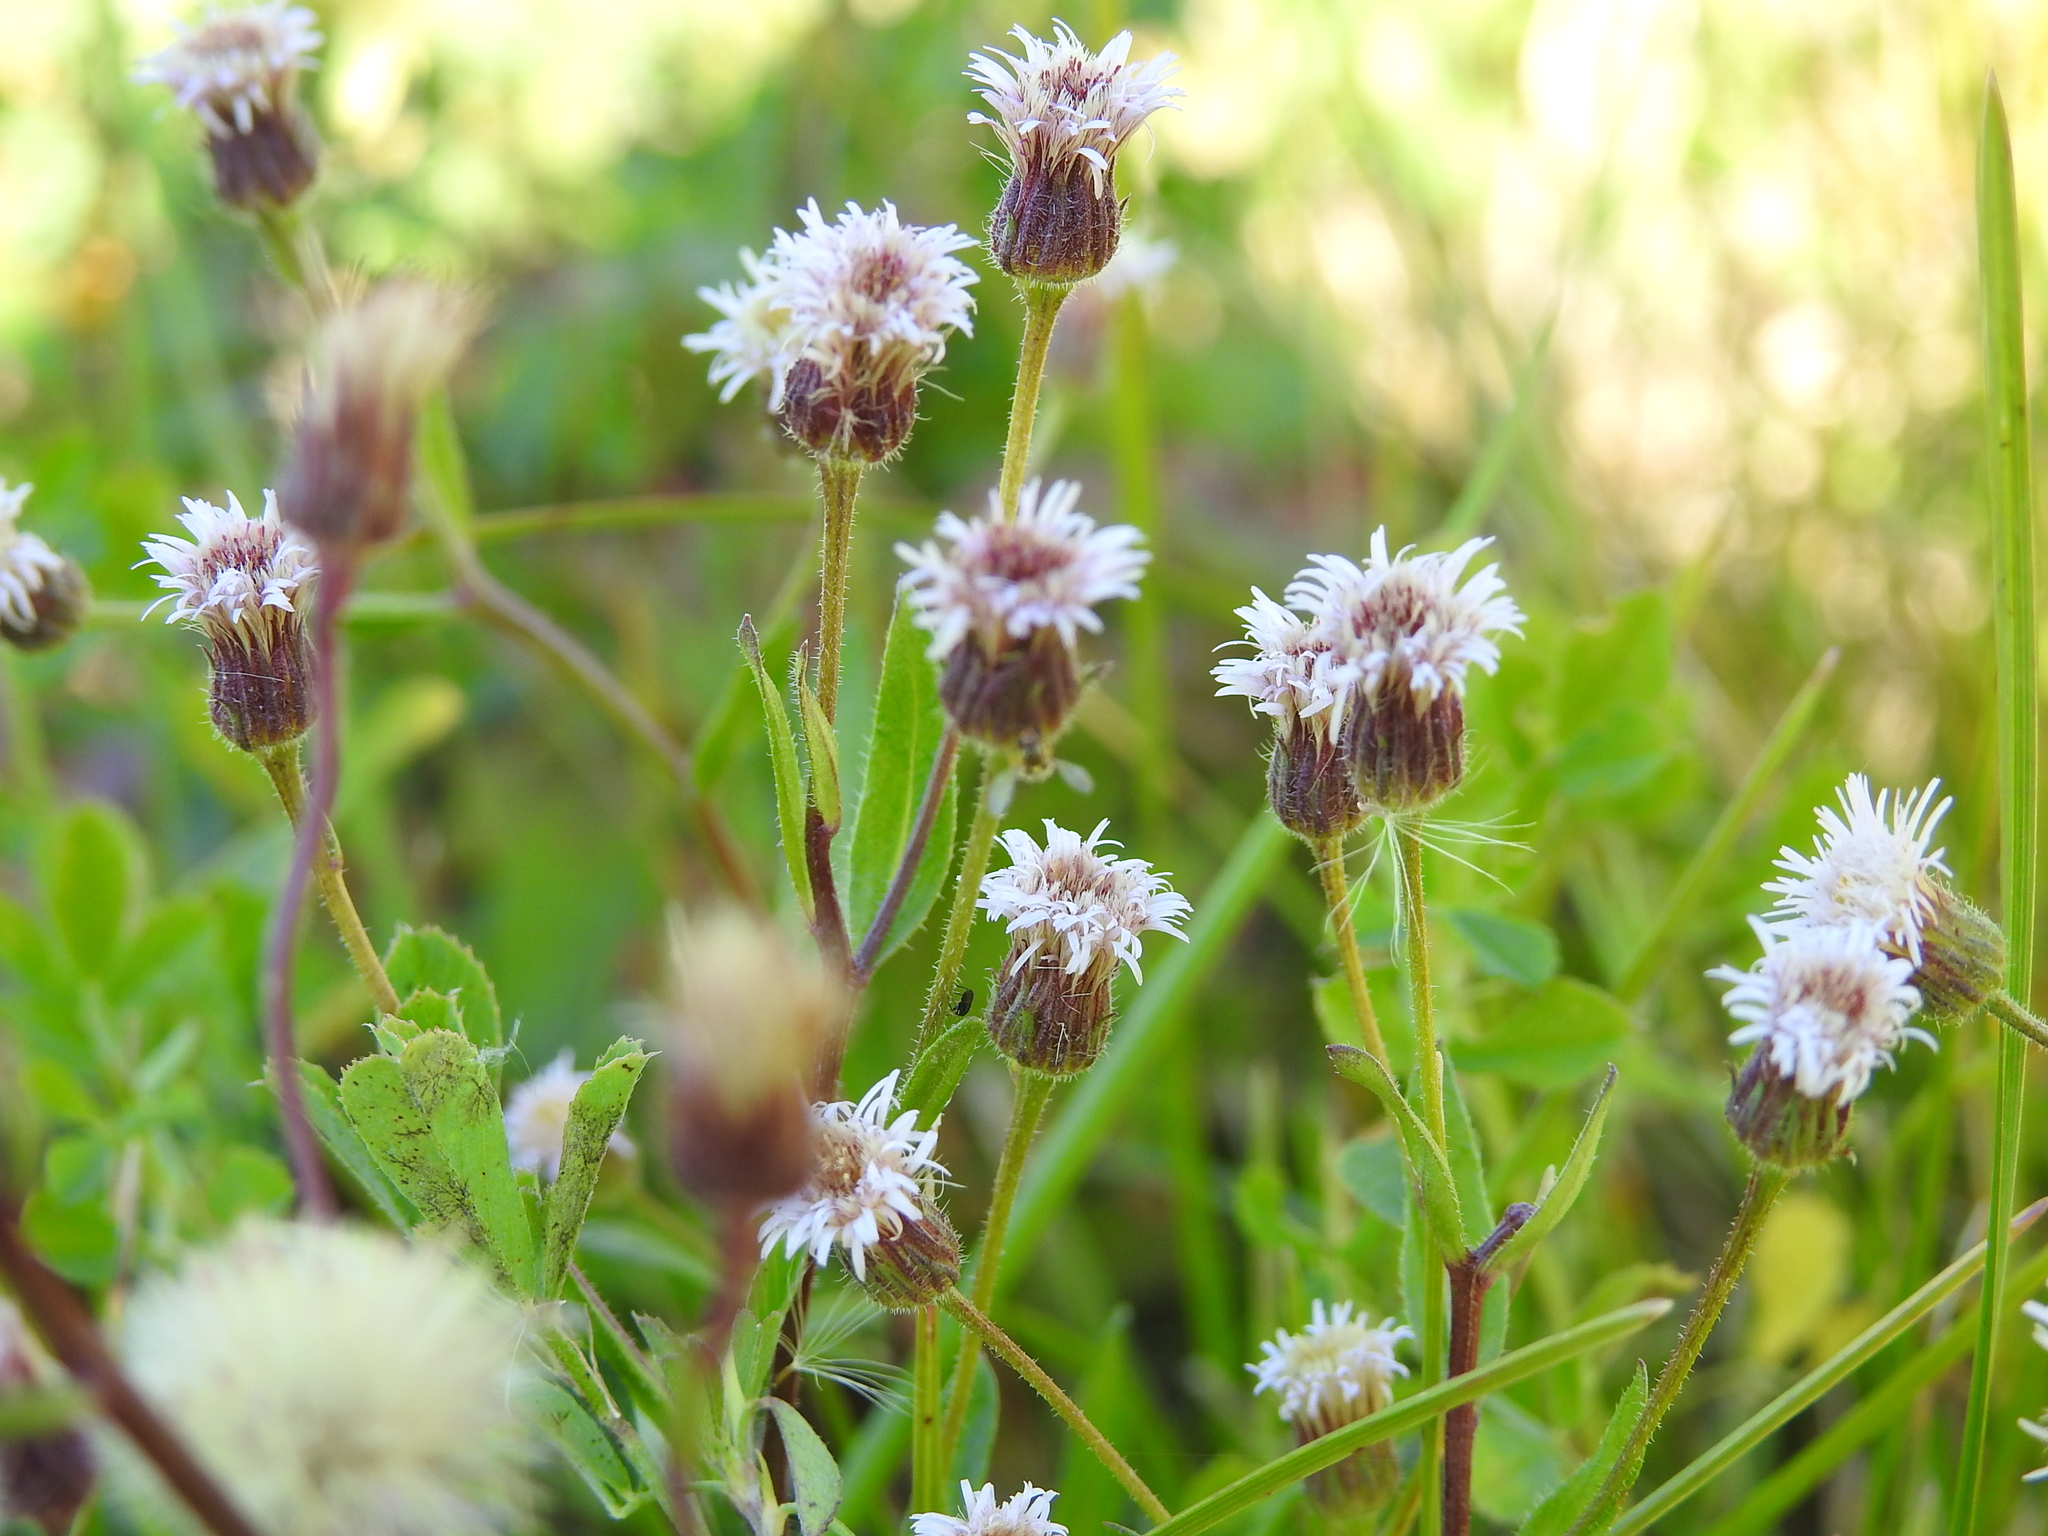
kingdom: Plantae
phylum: Tracheophyta
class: Magnoliopsida
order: Asterales
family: Asteraceae
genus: Erigeron
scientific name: Erigeron acris
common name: Blue fleabane
